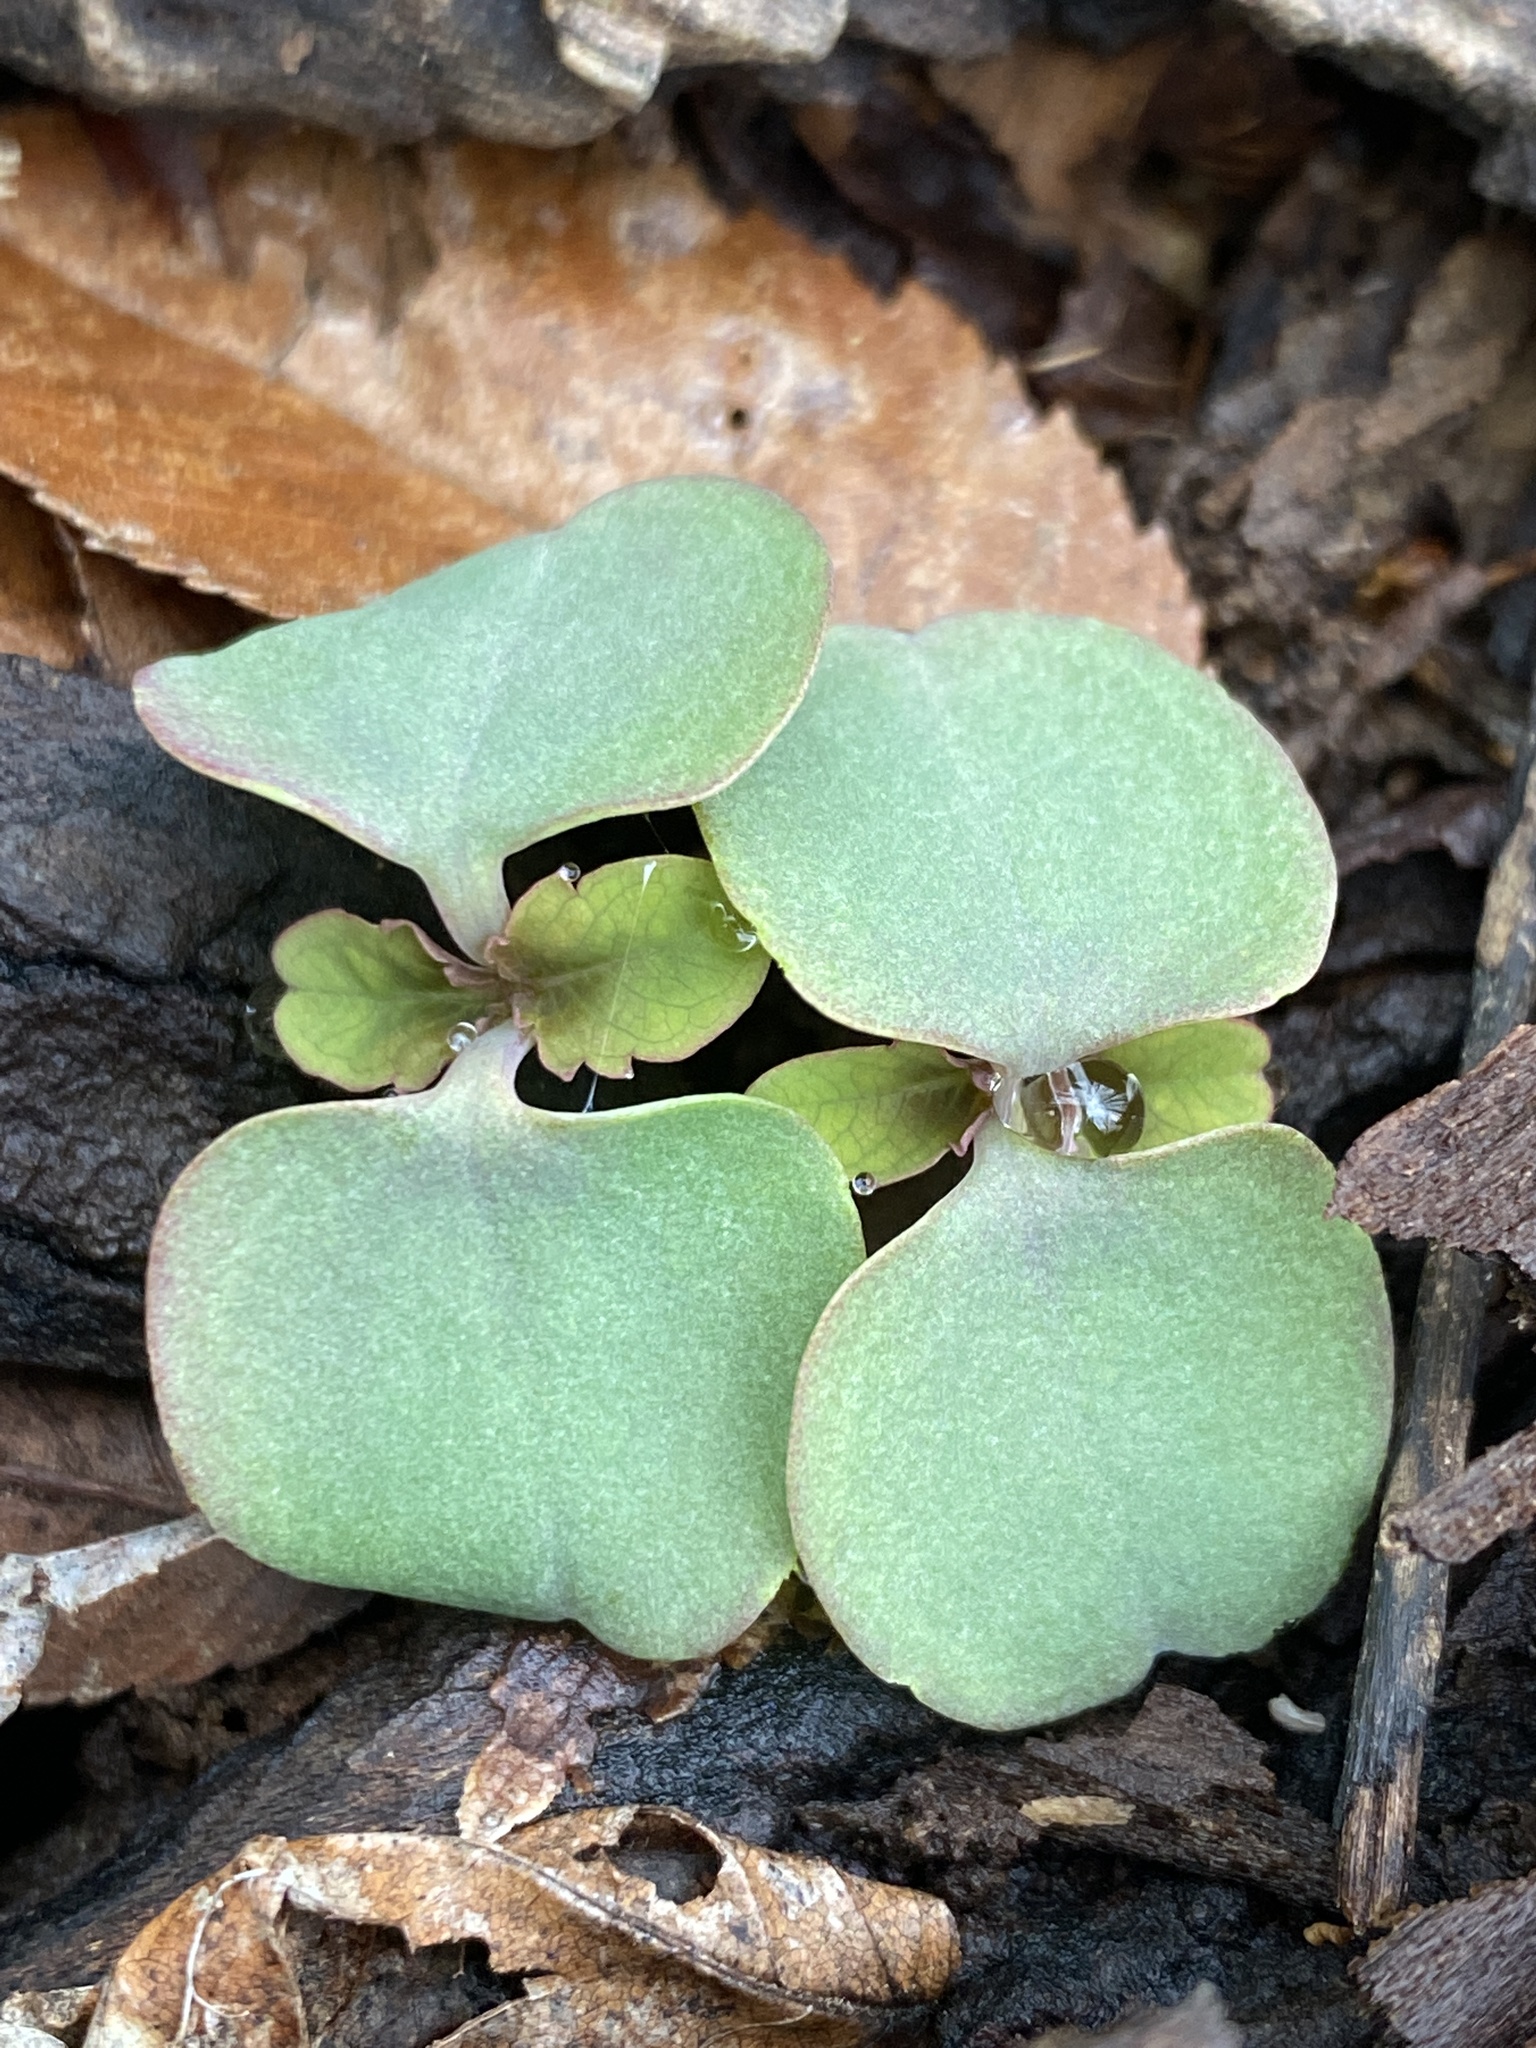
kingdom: Plantae
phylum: Tracheophyta
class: Magnoliopsida
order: Ericales
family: Balsaminaceae
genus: Impatiens
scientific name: Impatiens capensis
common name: Orange balsam
